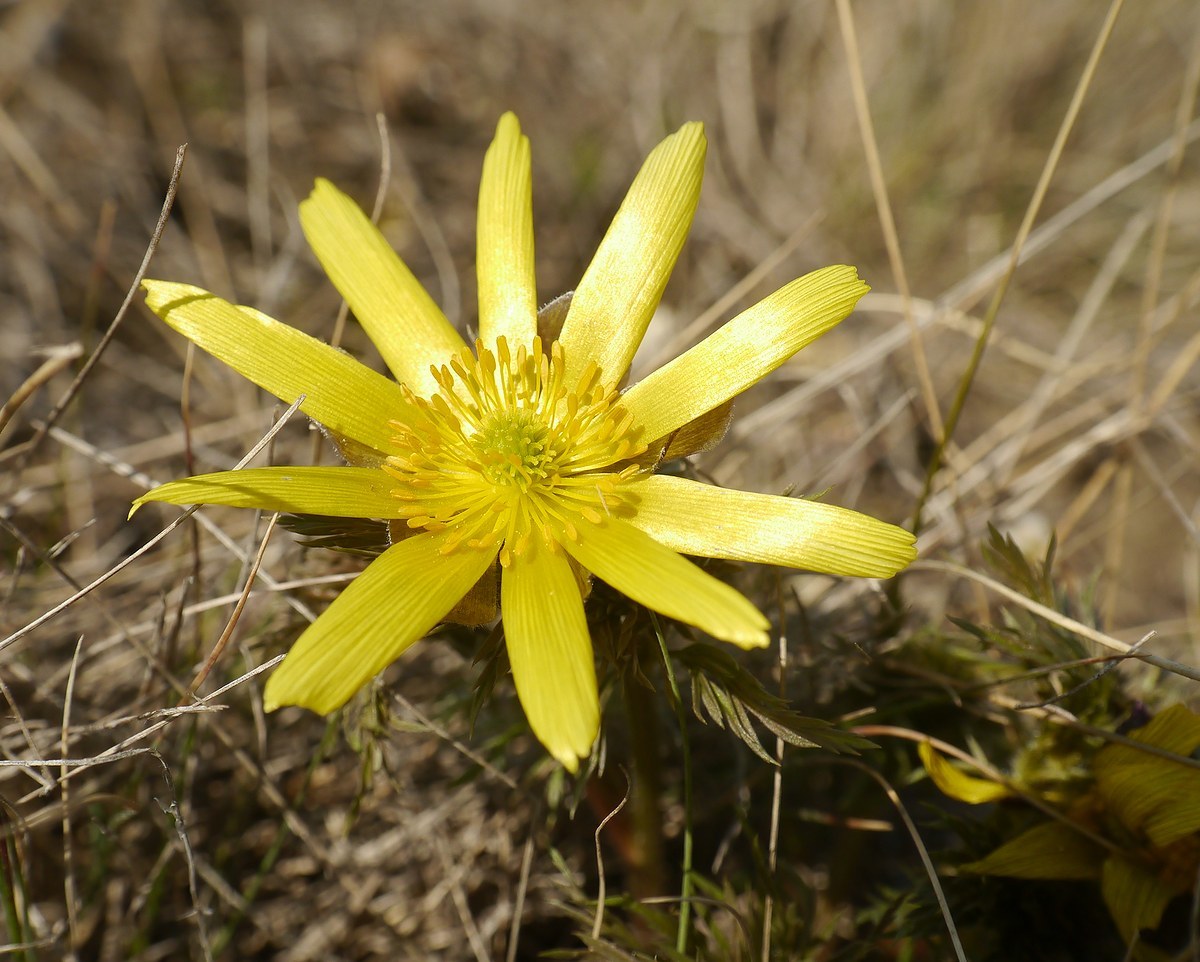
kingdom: Plantae
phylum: Tracheophyta
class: Magnoliopsida
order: Ranunculales
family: Ranunculaceae
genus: Adonis
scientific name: Adonis volgensis
